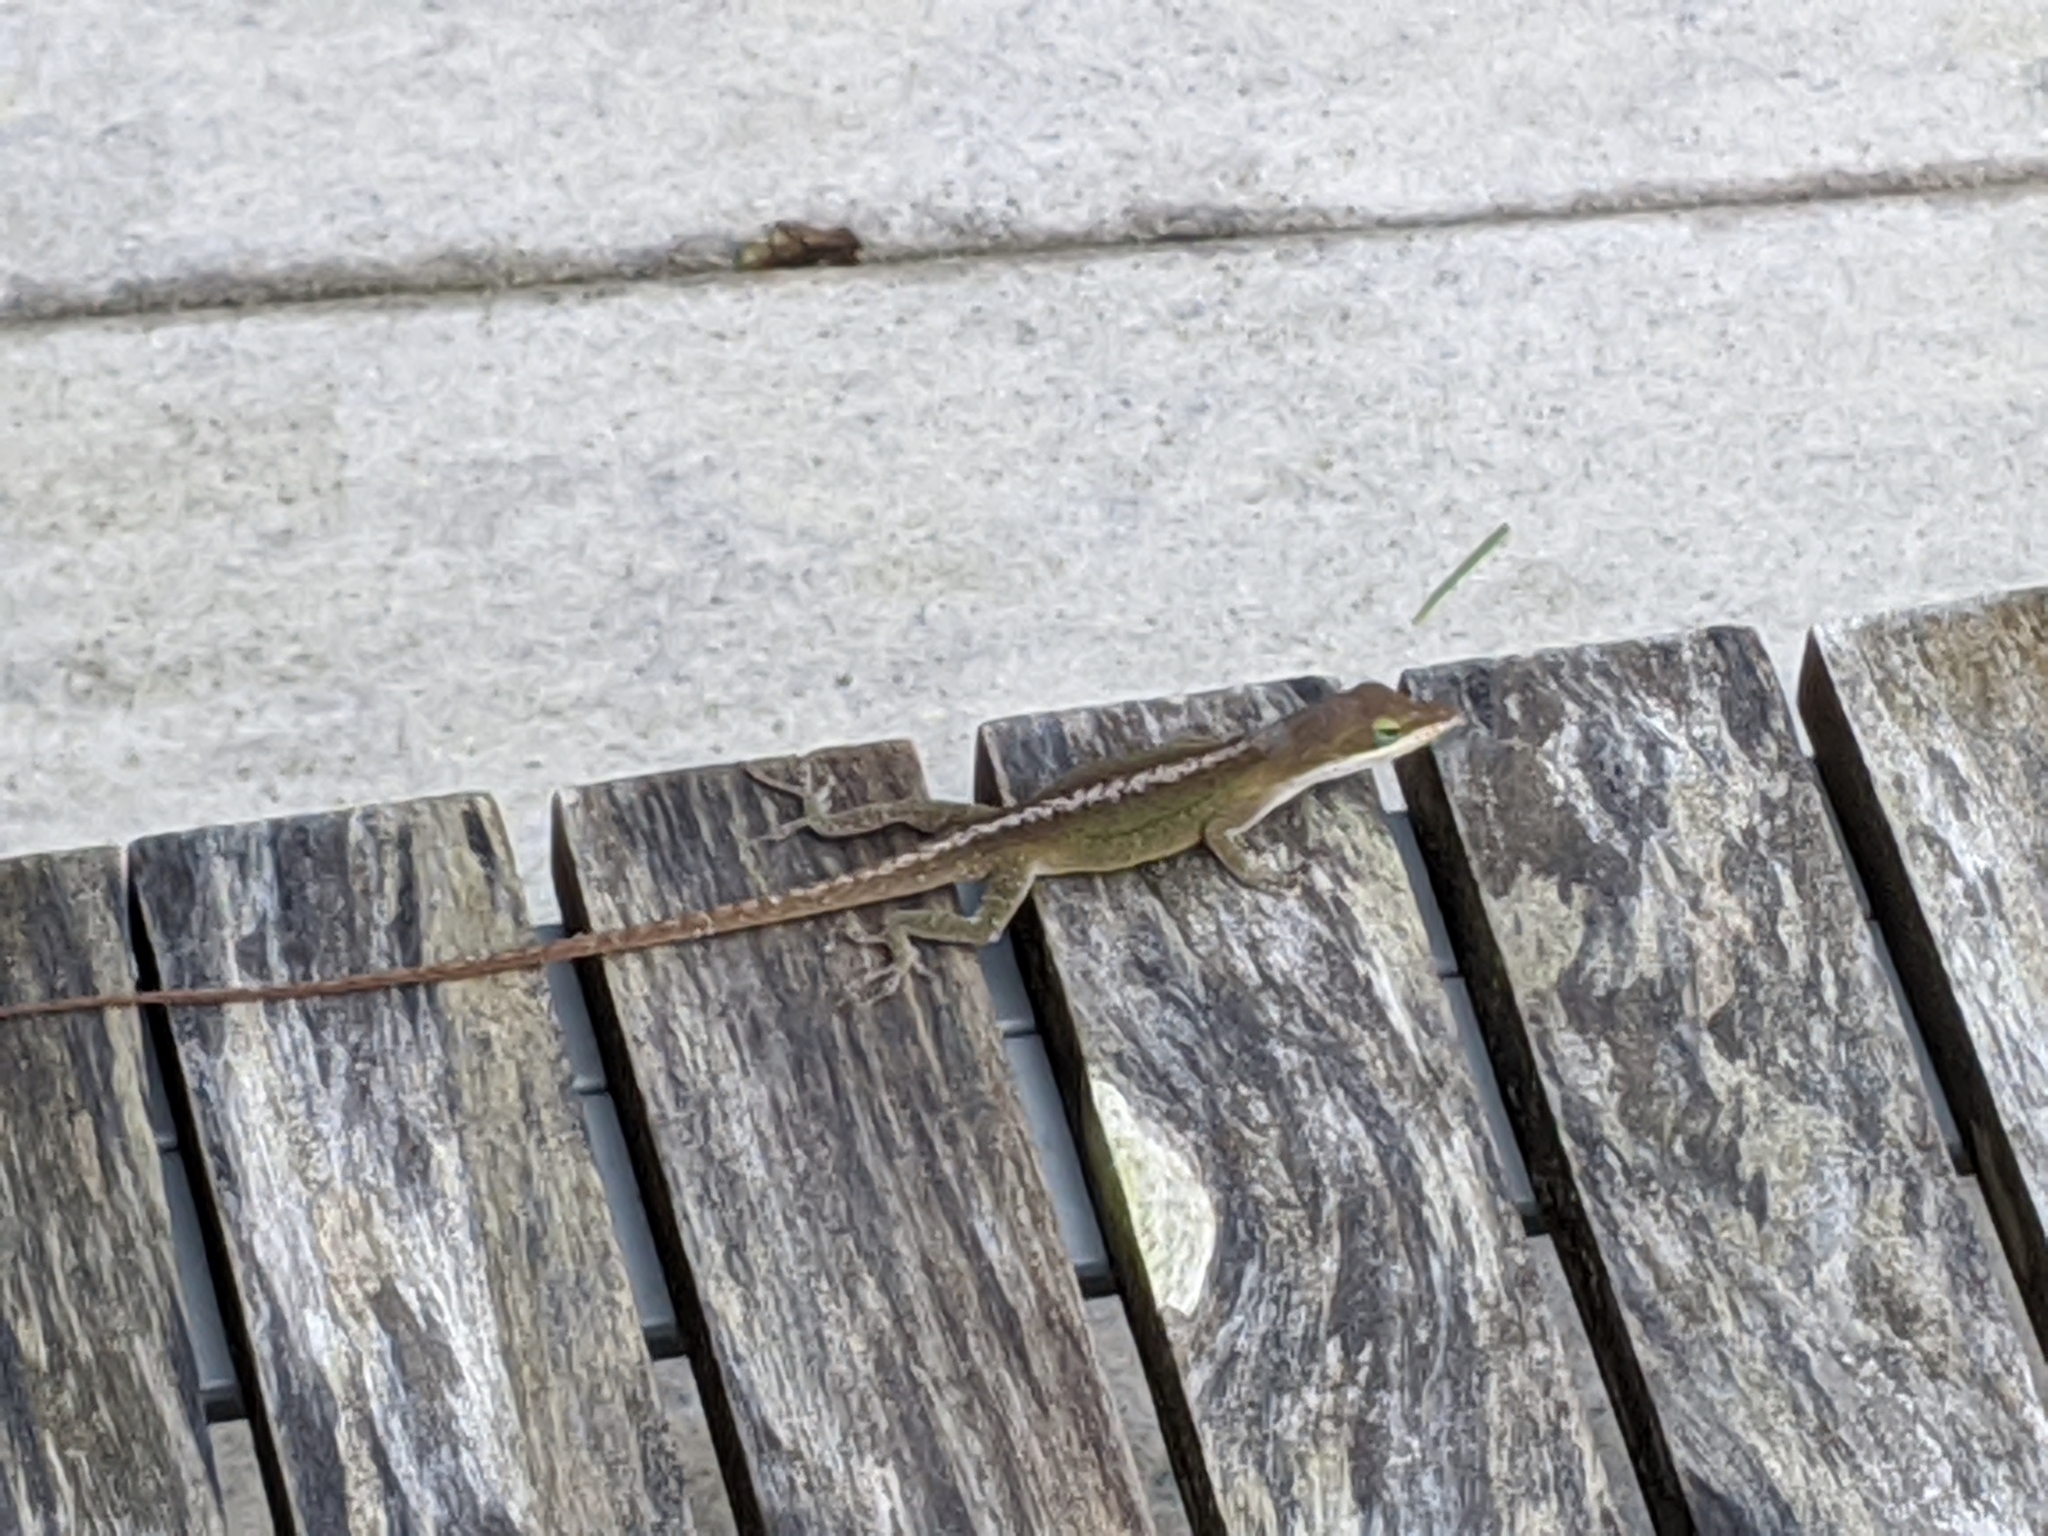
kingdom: Animalia
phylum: Chordata
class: Squamata
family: Dactyloidae
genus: Anolis
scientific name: Anolis carolinensis
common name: Green anole
